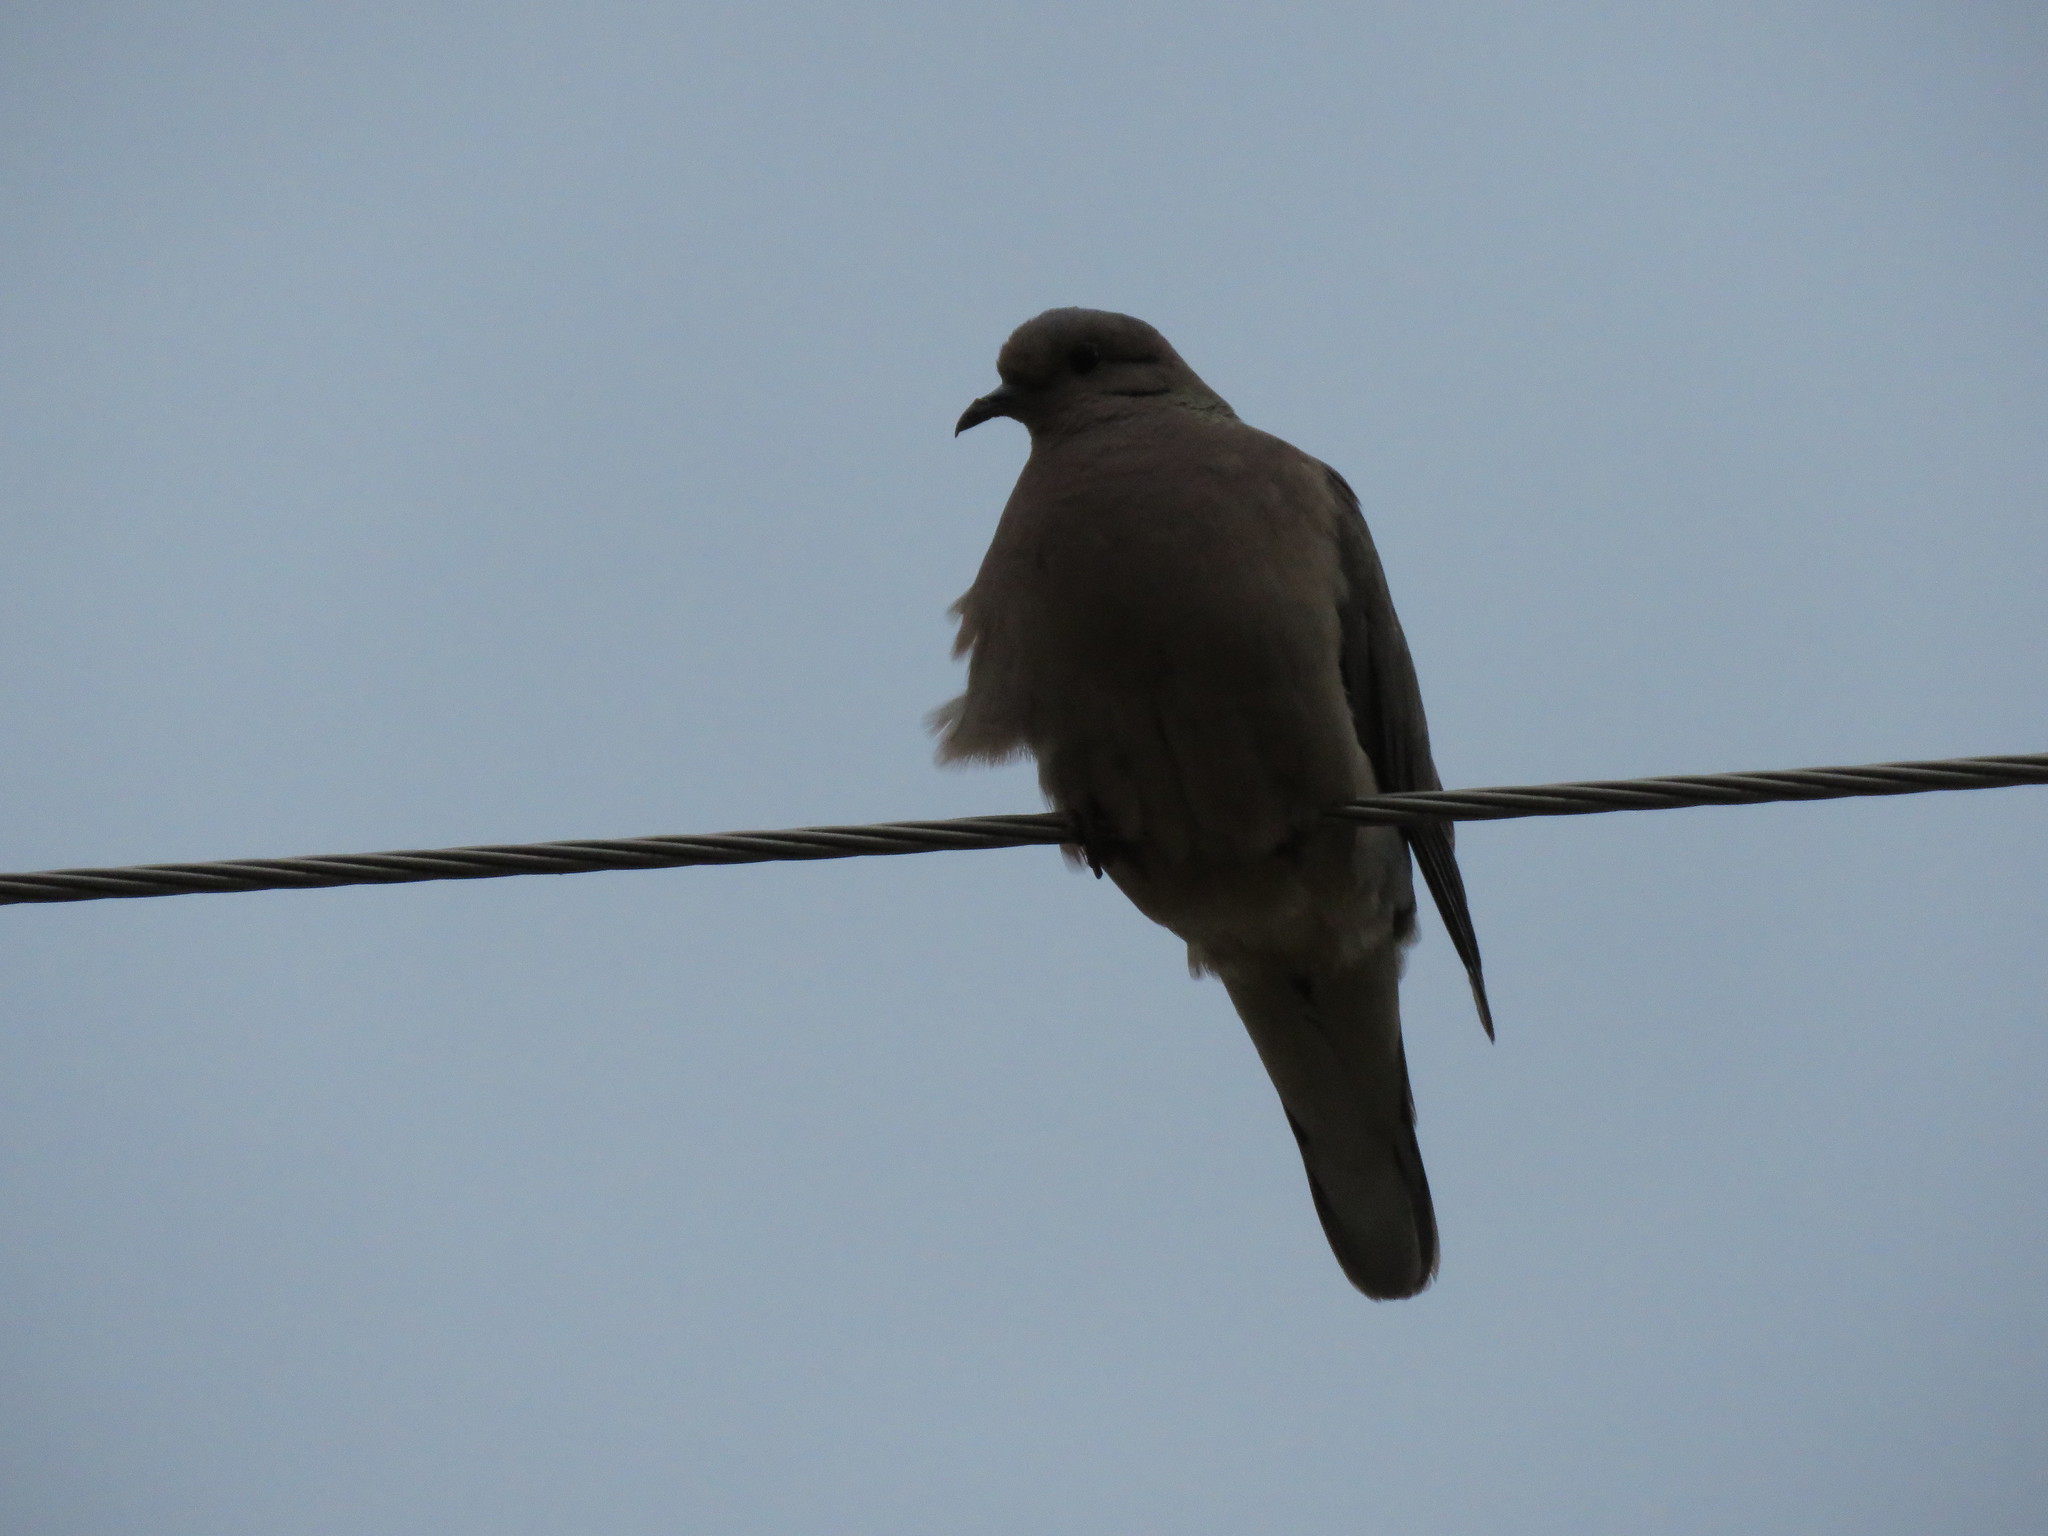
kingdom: Animalia
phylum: Chordata
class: Aves
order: Columbiformes
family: Columbidae
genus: Zenaida
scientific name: Zenaida auriculata
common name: Eared dove
